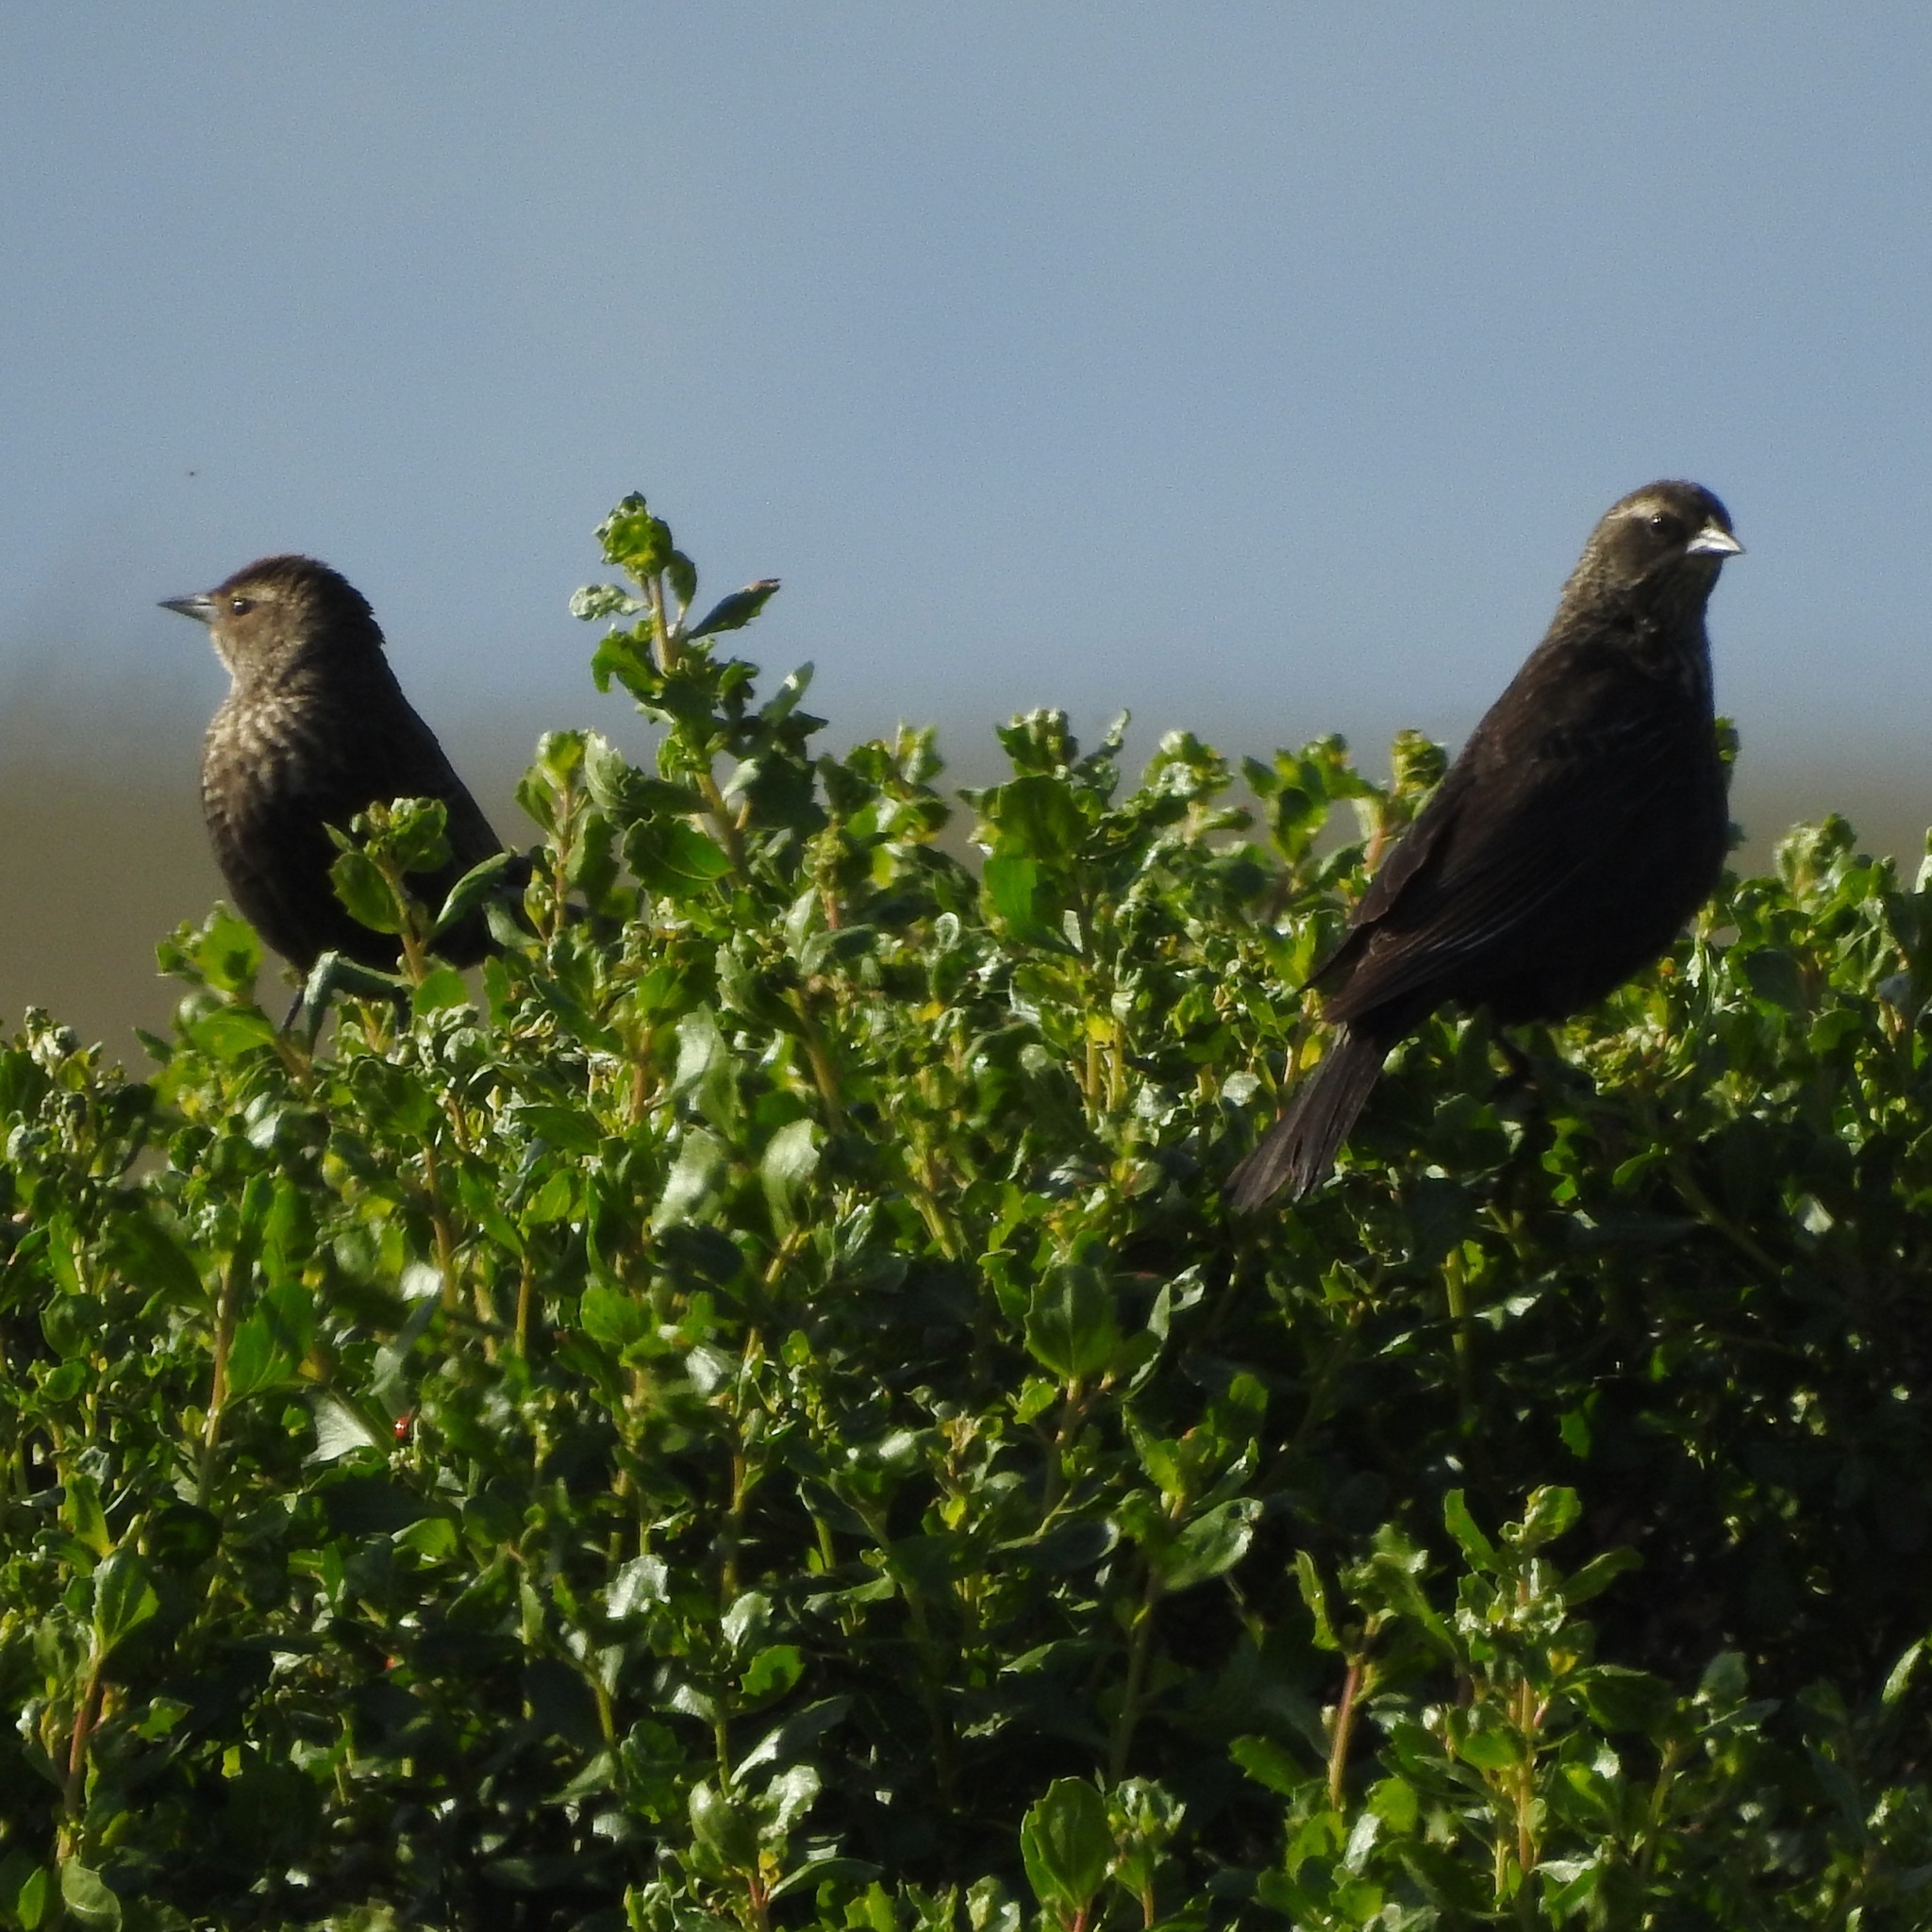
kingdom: Animalia
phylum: Chordata
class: Aves
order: Passeriformes
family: Icteridae
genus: Agelaius
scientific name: Agelaius phoeniceus
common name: Red-winged blackbird
